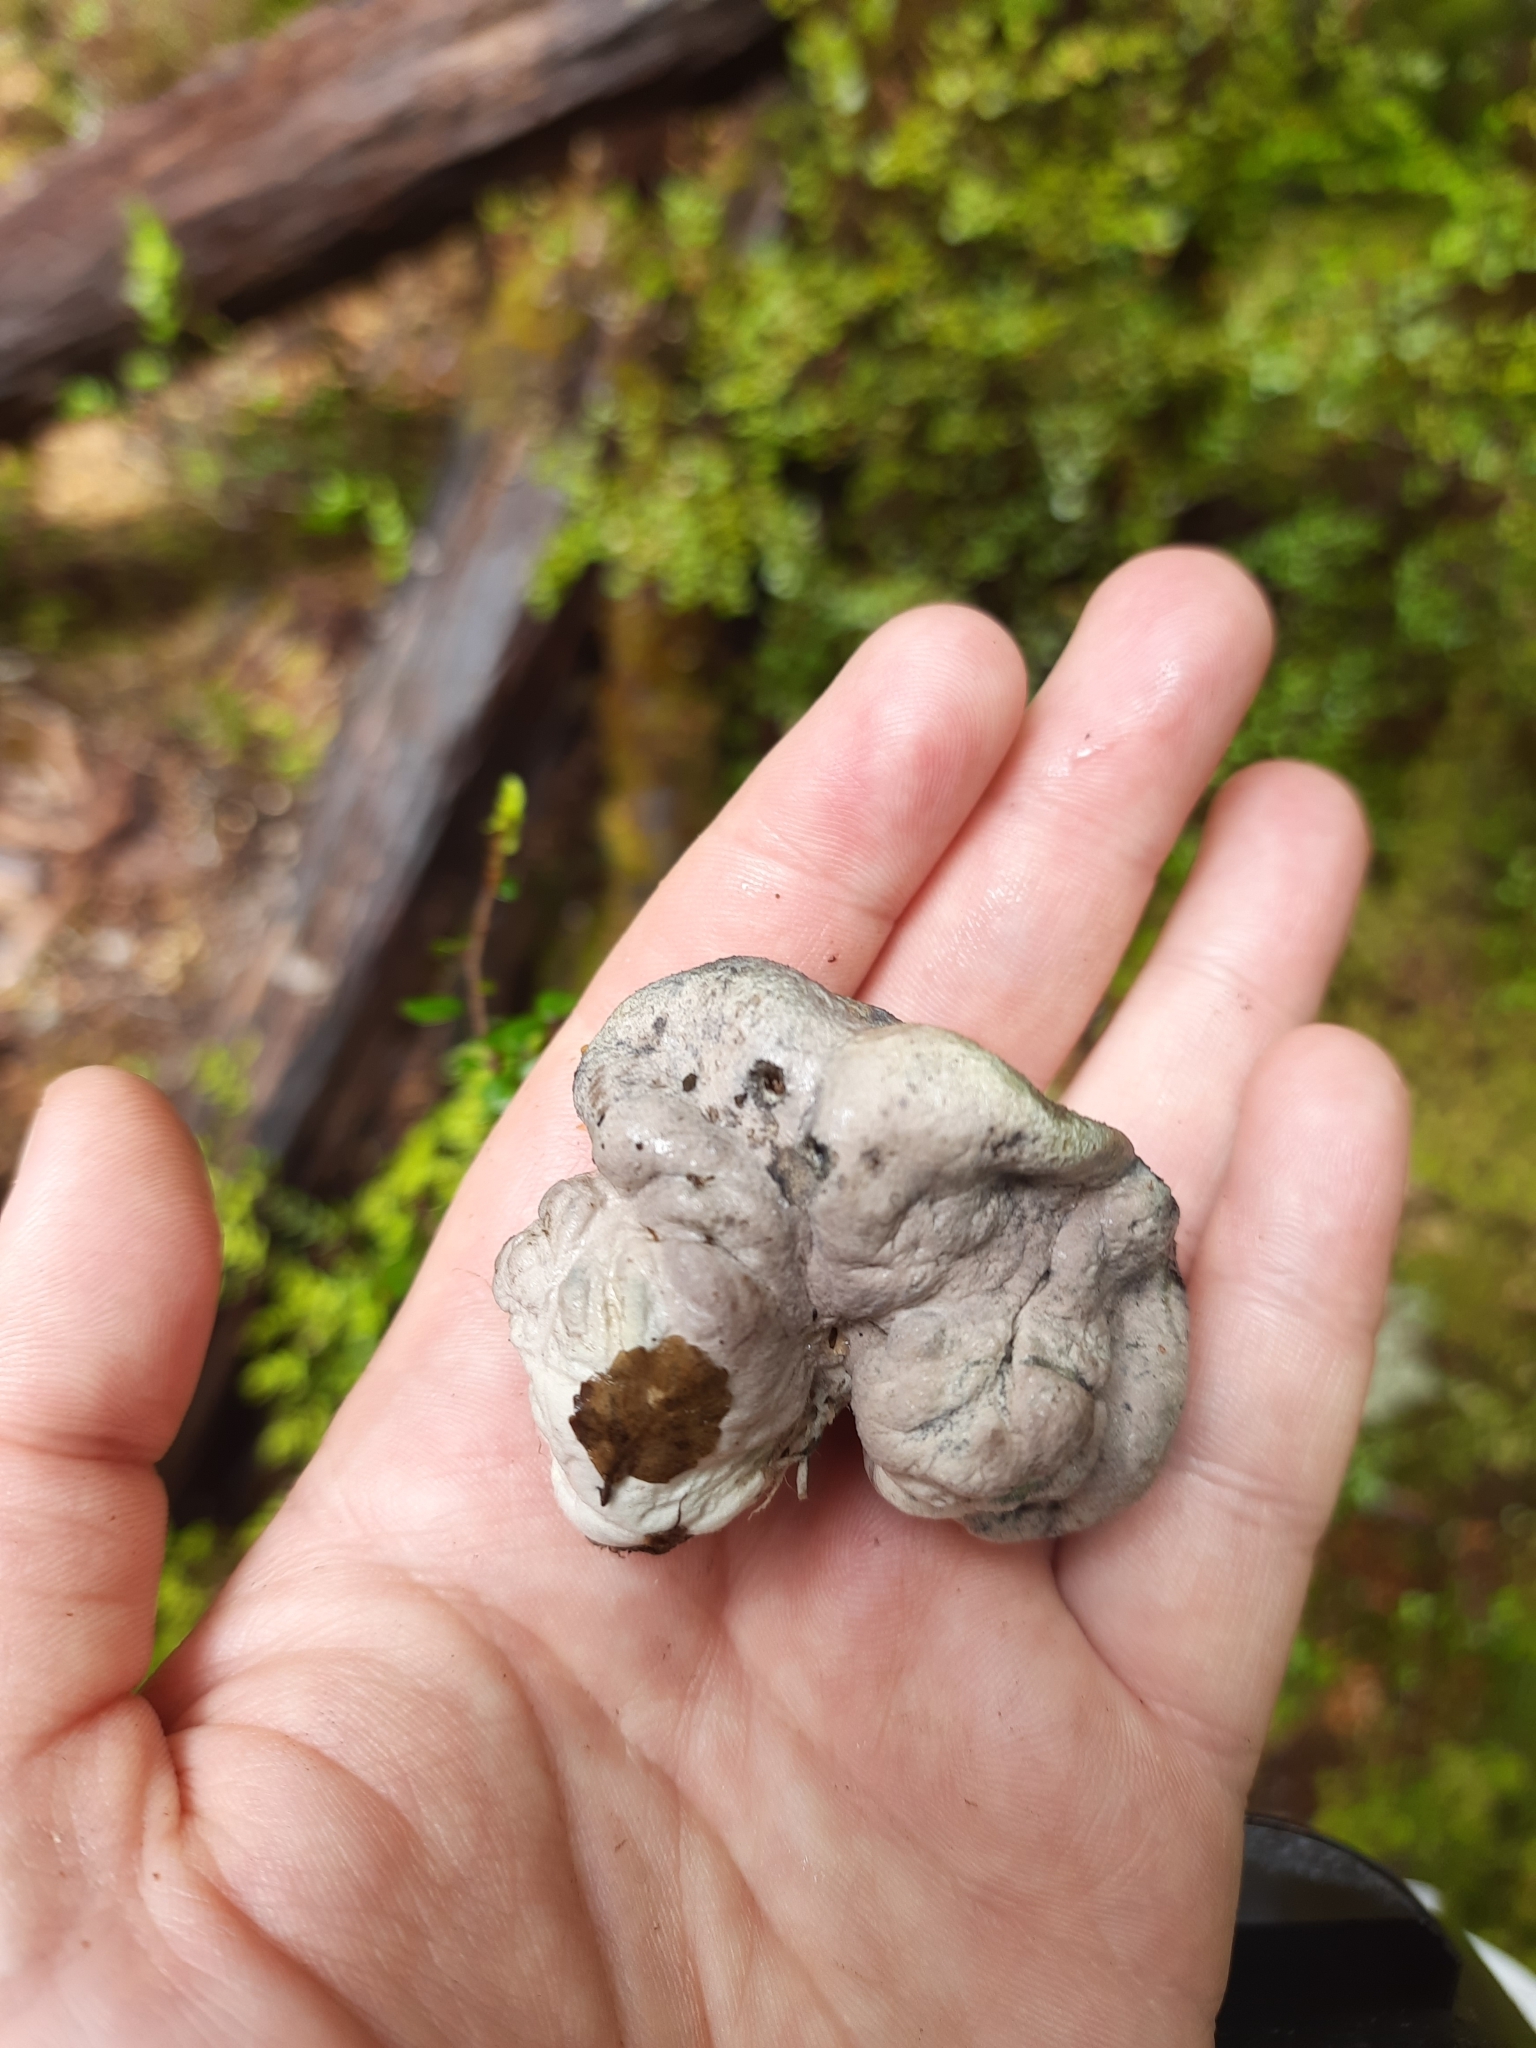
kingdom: Fungi
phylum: Basidiomycota
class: Agaricomycetes
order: Boletales
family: Boletaceae
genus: Leccinum
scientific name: Leccinum pachyderme
